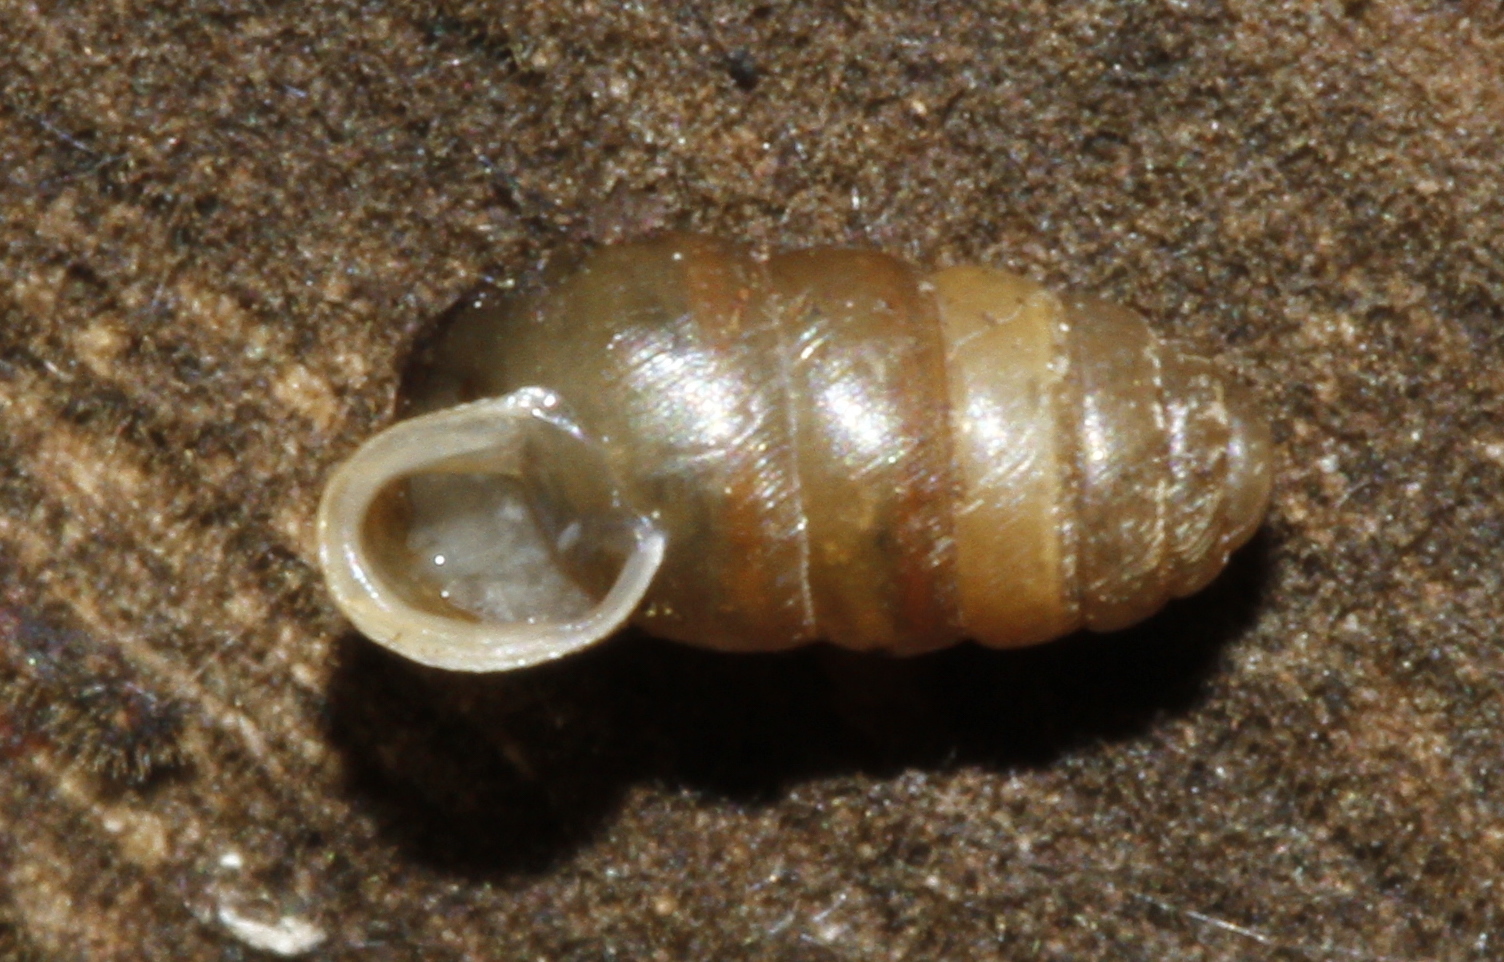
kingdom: Animalia
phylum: Mollusca
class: Gastropoda
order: Stylommatophora
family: Lauriidae
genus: Lauria
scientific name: Lauria cylindracea
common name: Common chrysalis snail
